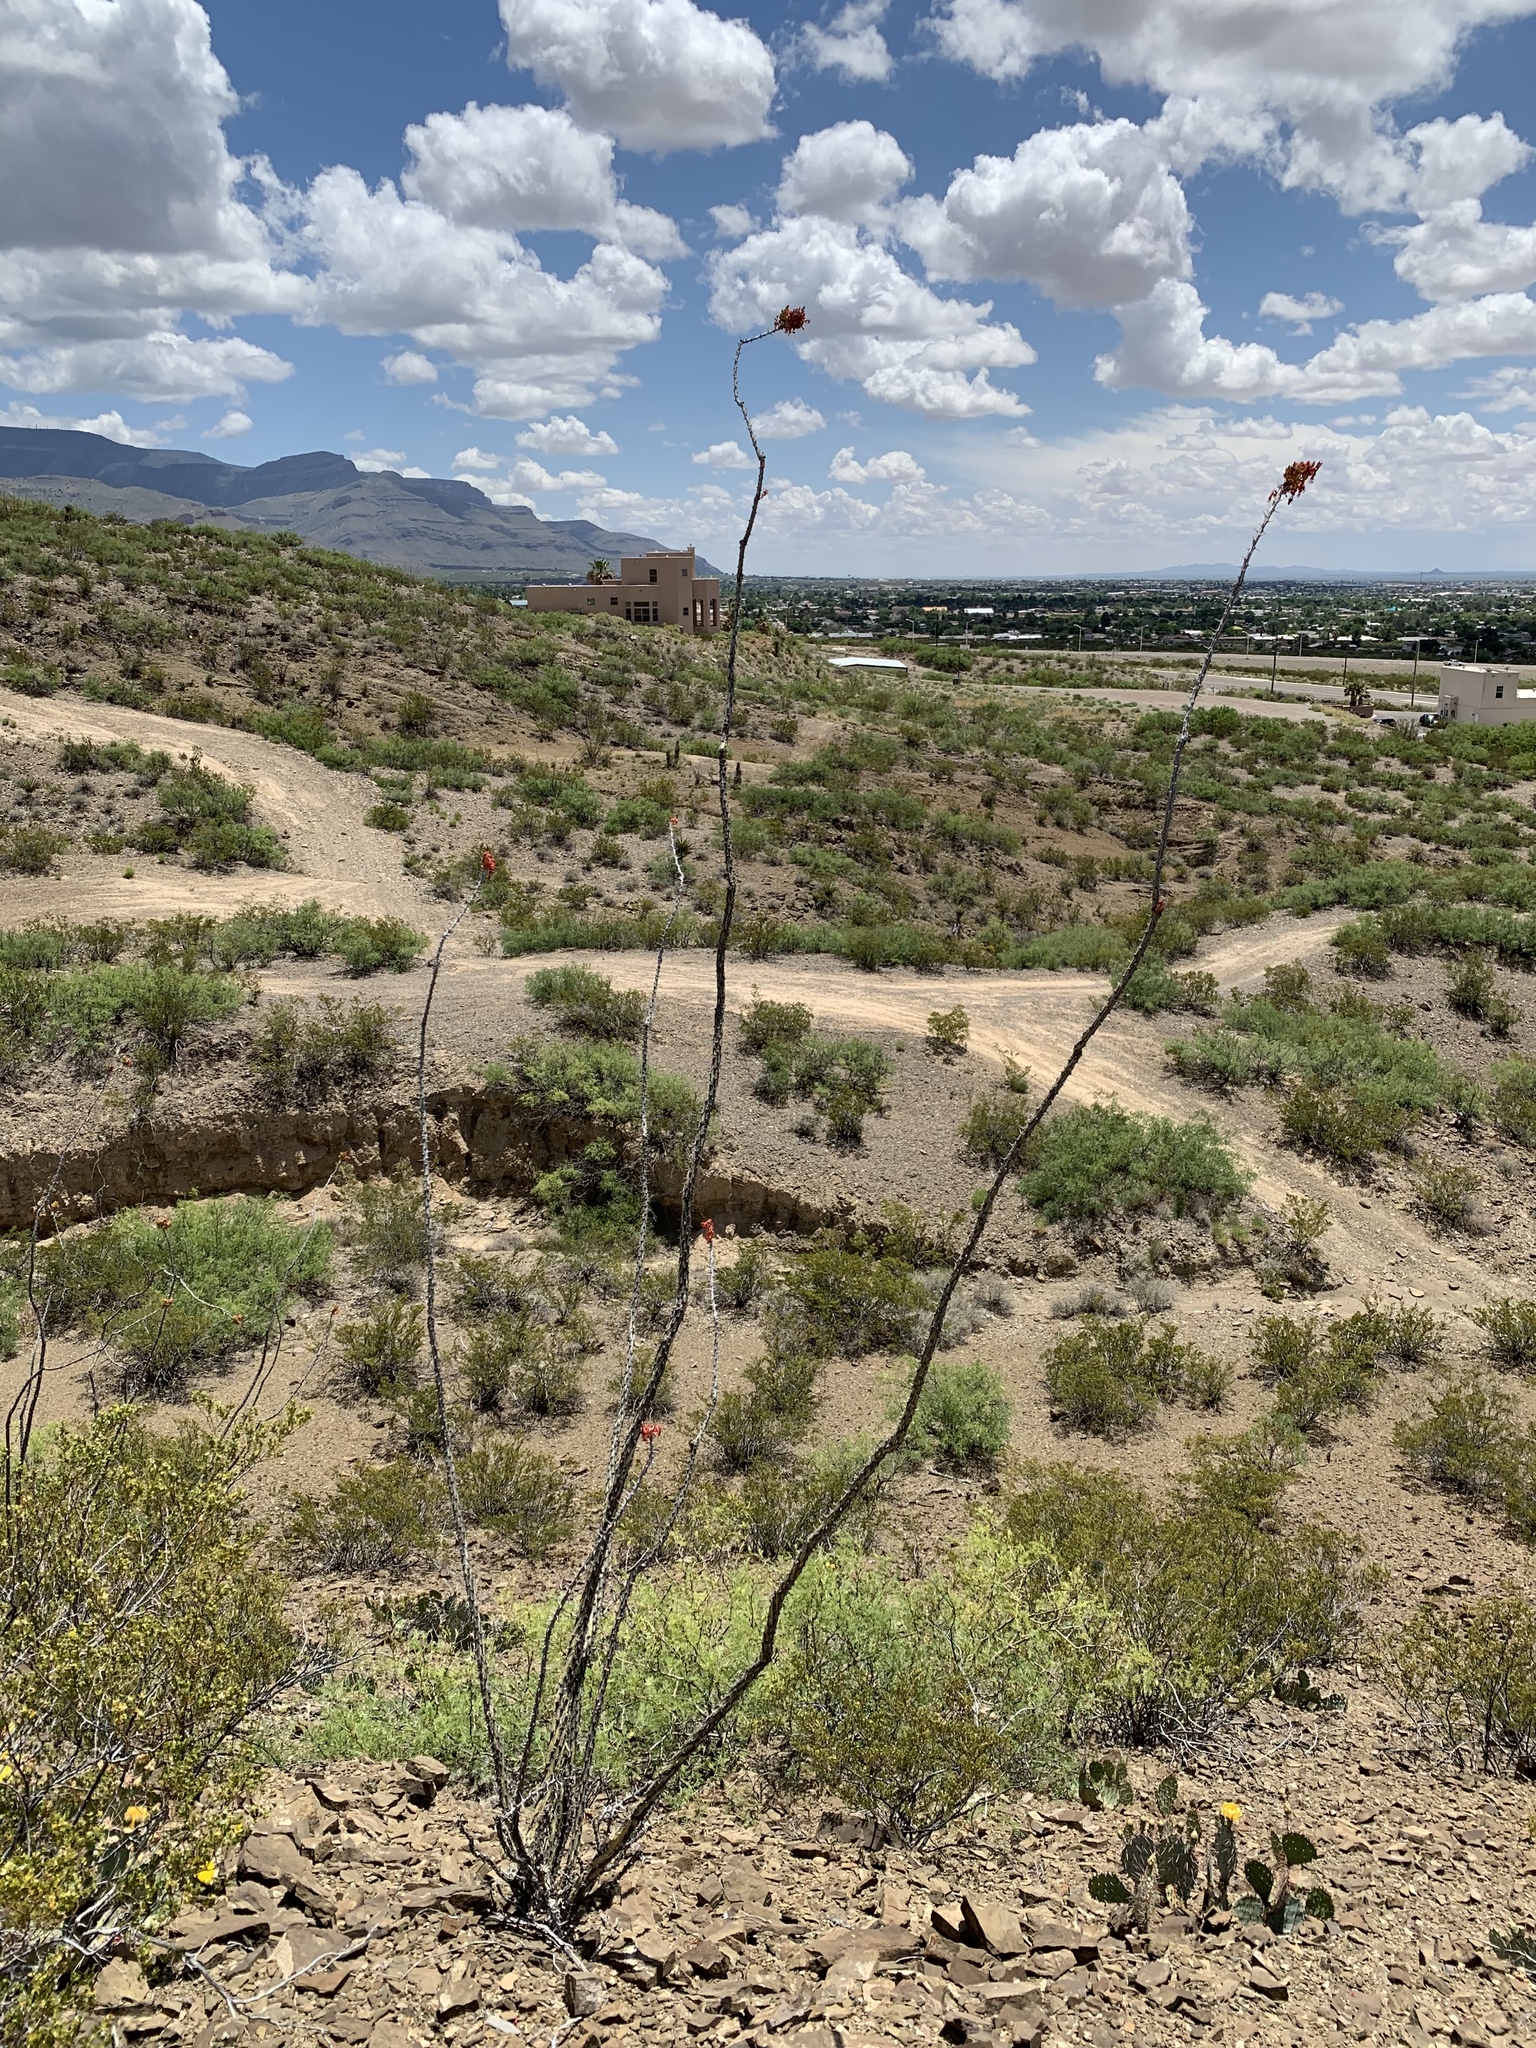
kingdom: Plantae
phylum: Tracheophyta
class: Magnoliopsida
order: Ericales
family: Fouquieriaceae
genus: Fouquieria
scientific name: Fouquieria splendens
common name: Vine-cactus
